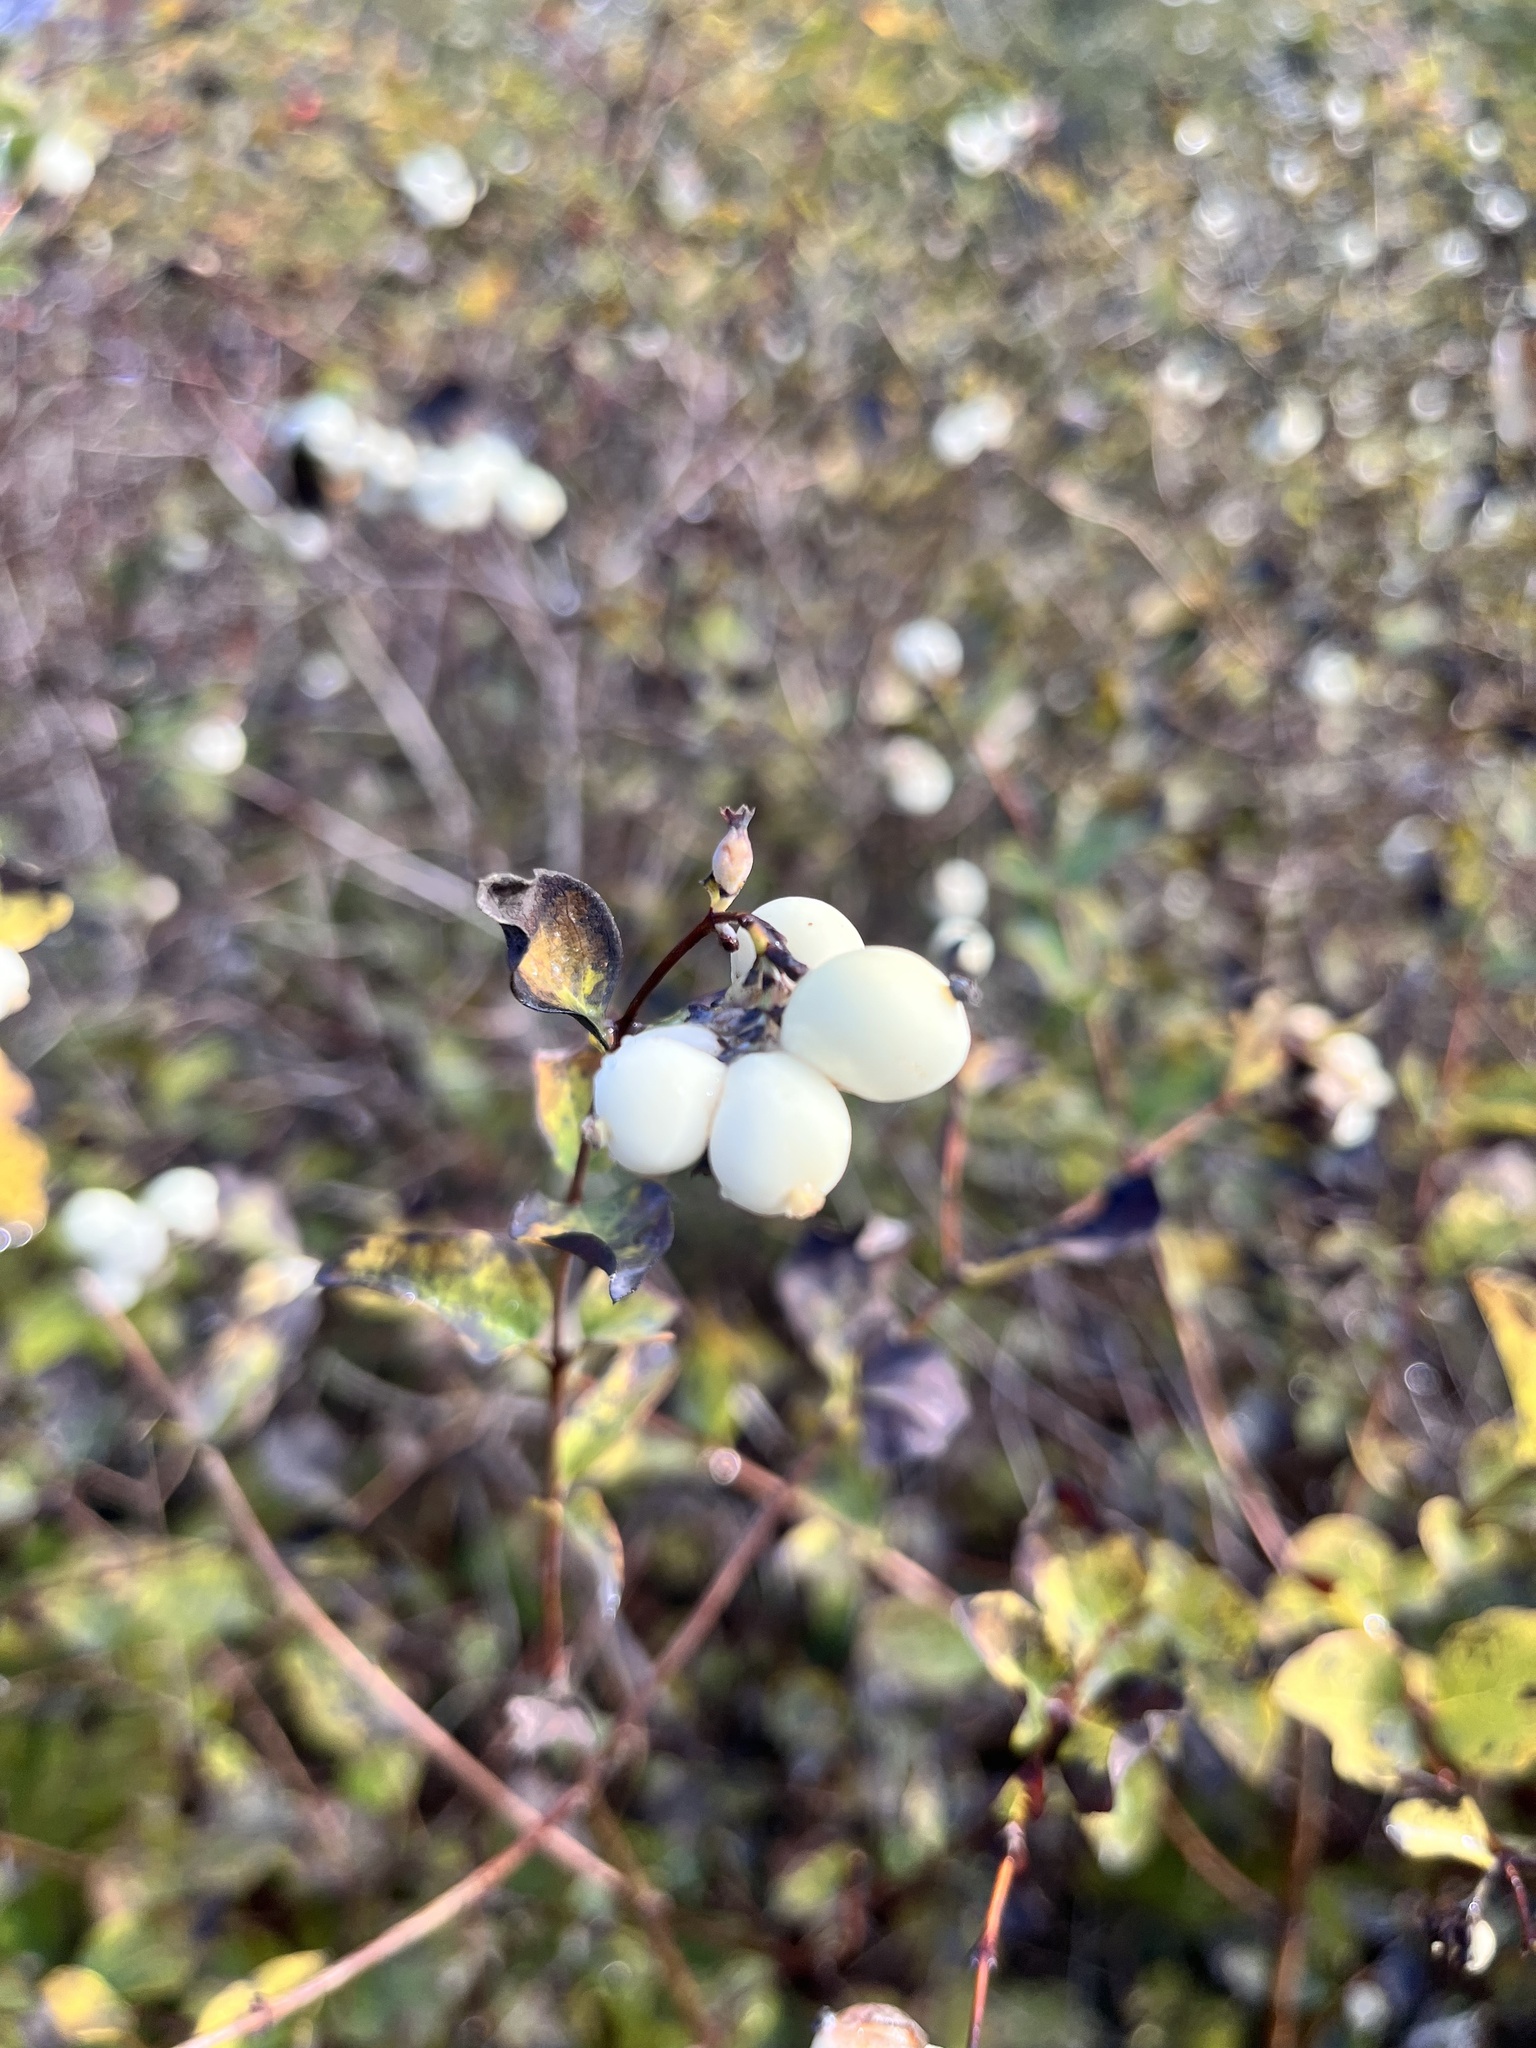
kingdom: Plantae
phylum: Tracheophyta
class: Magnoliopsida
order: Dipsacales
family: Caprifoliaceae
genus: Symphoricarpos
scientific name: Symphoricarpos albus
